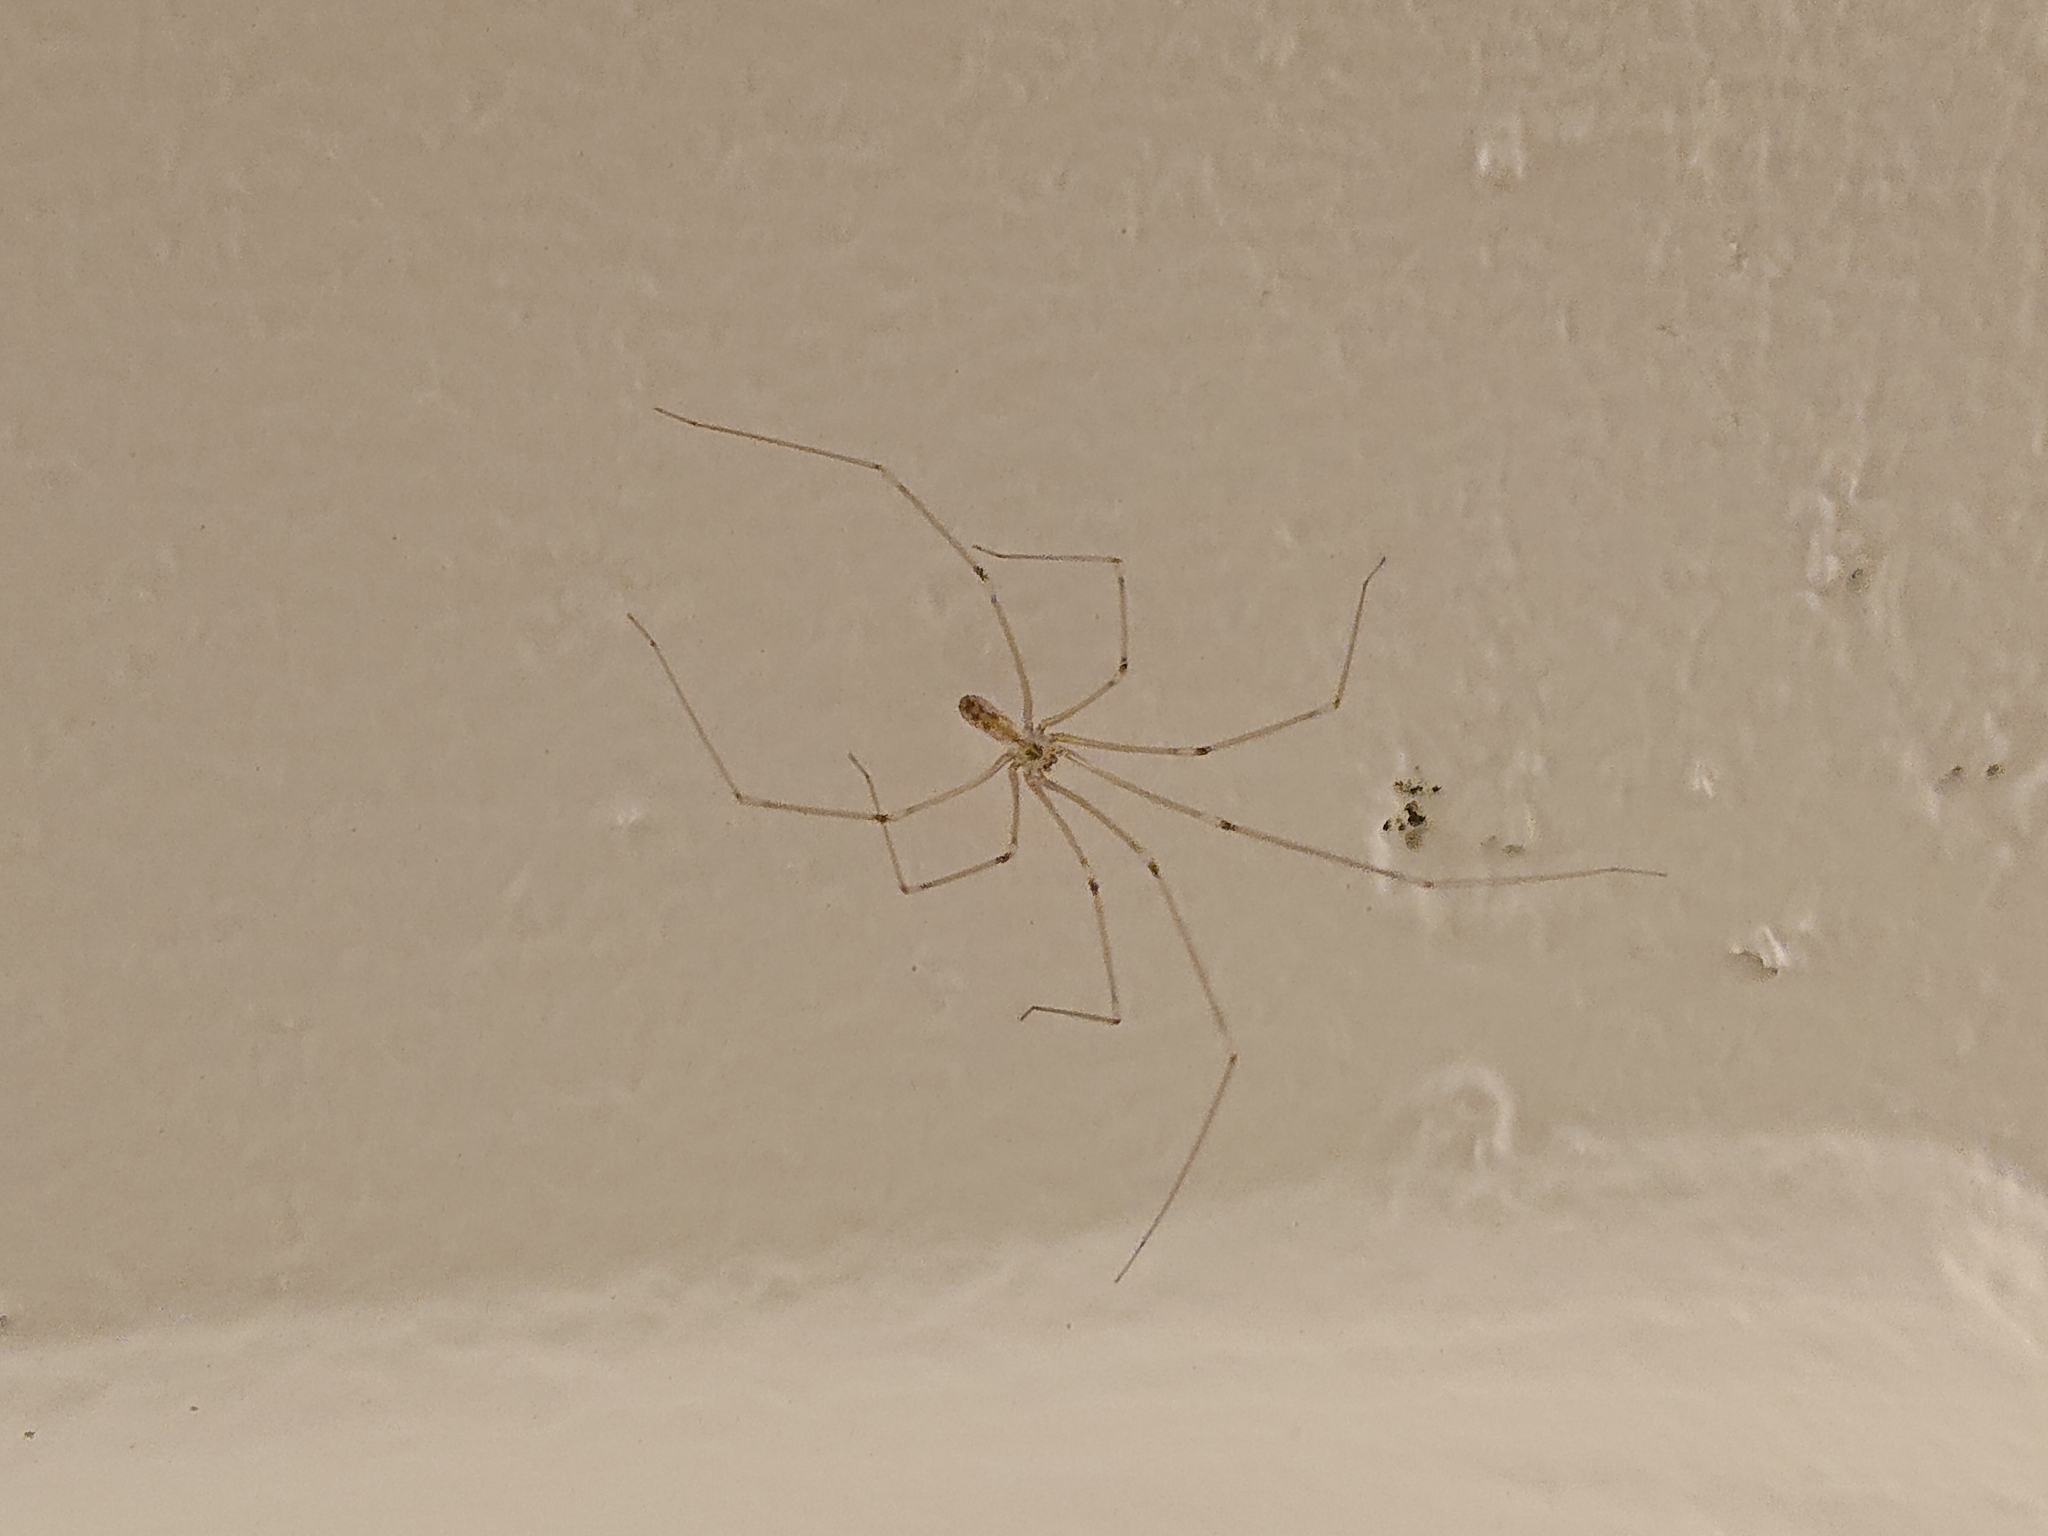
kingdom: Animalia
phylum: Arthropoda
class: Arachnida
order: Araneae
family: Pholcidae
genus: Pholcus
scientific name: Pholcus phalangioides
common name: Longbodied cellar spider
